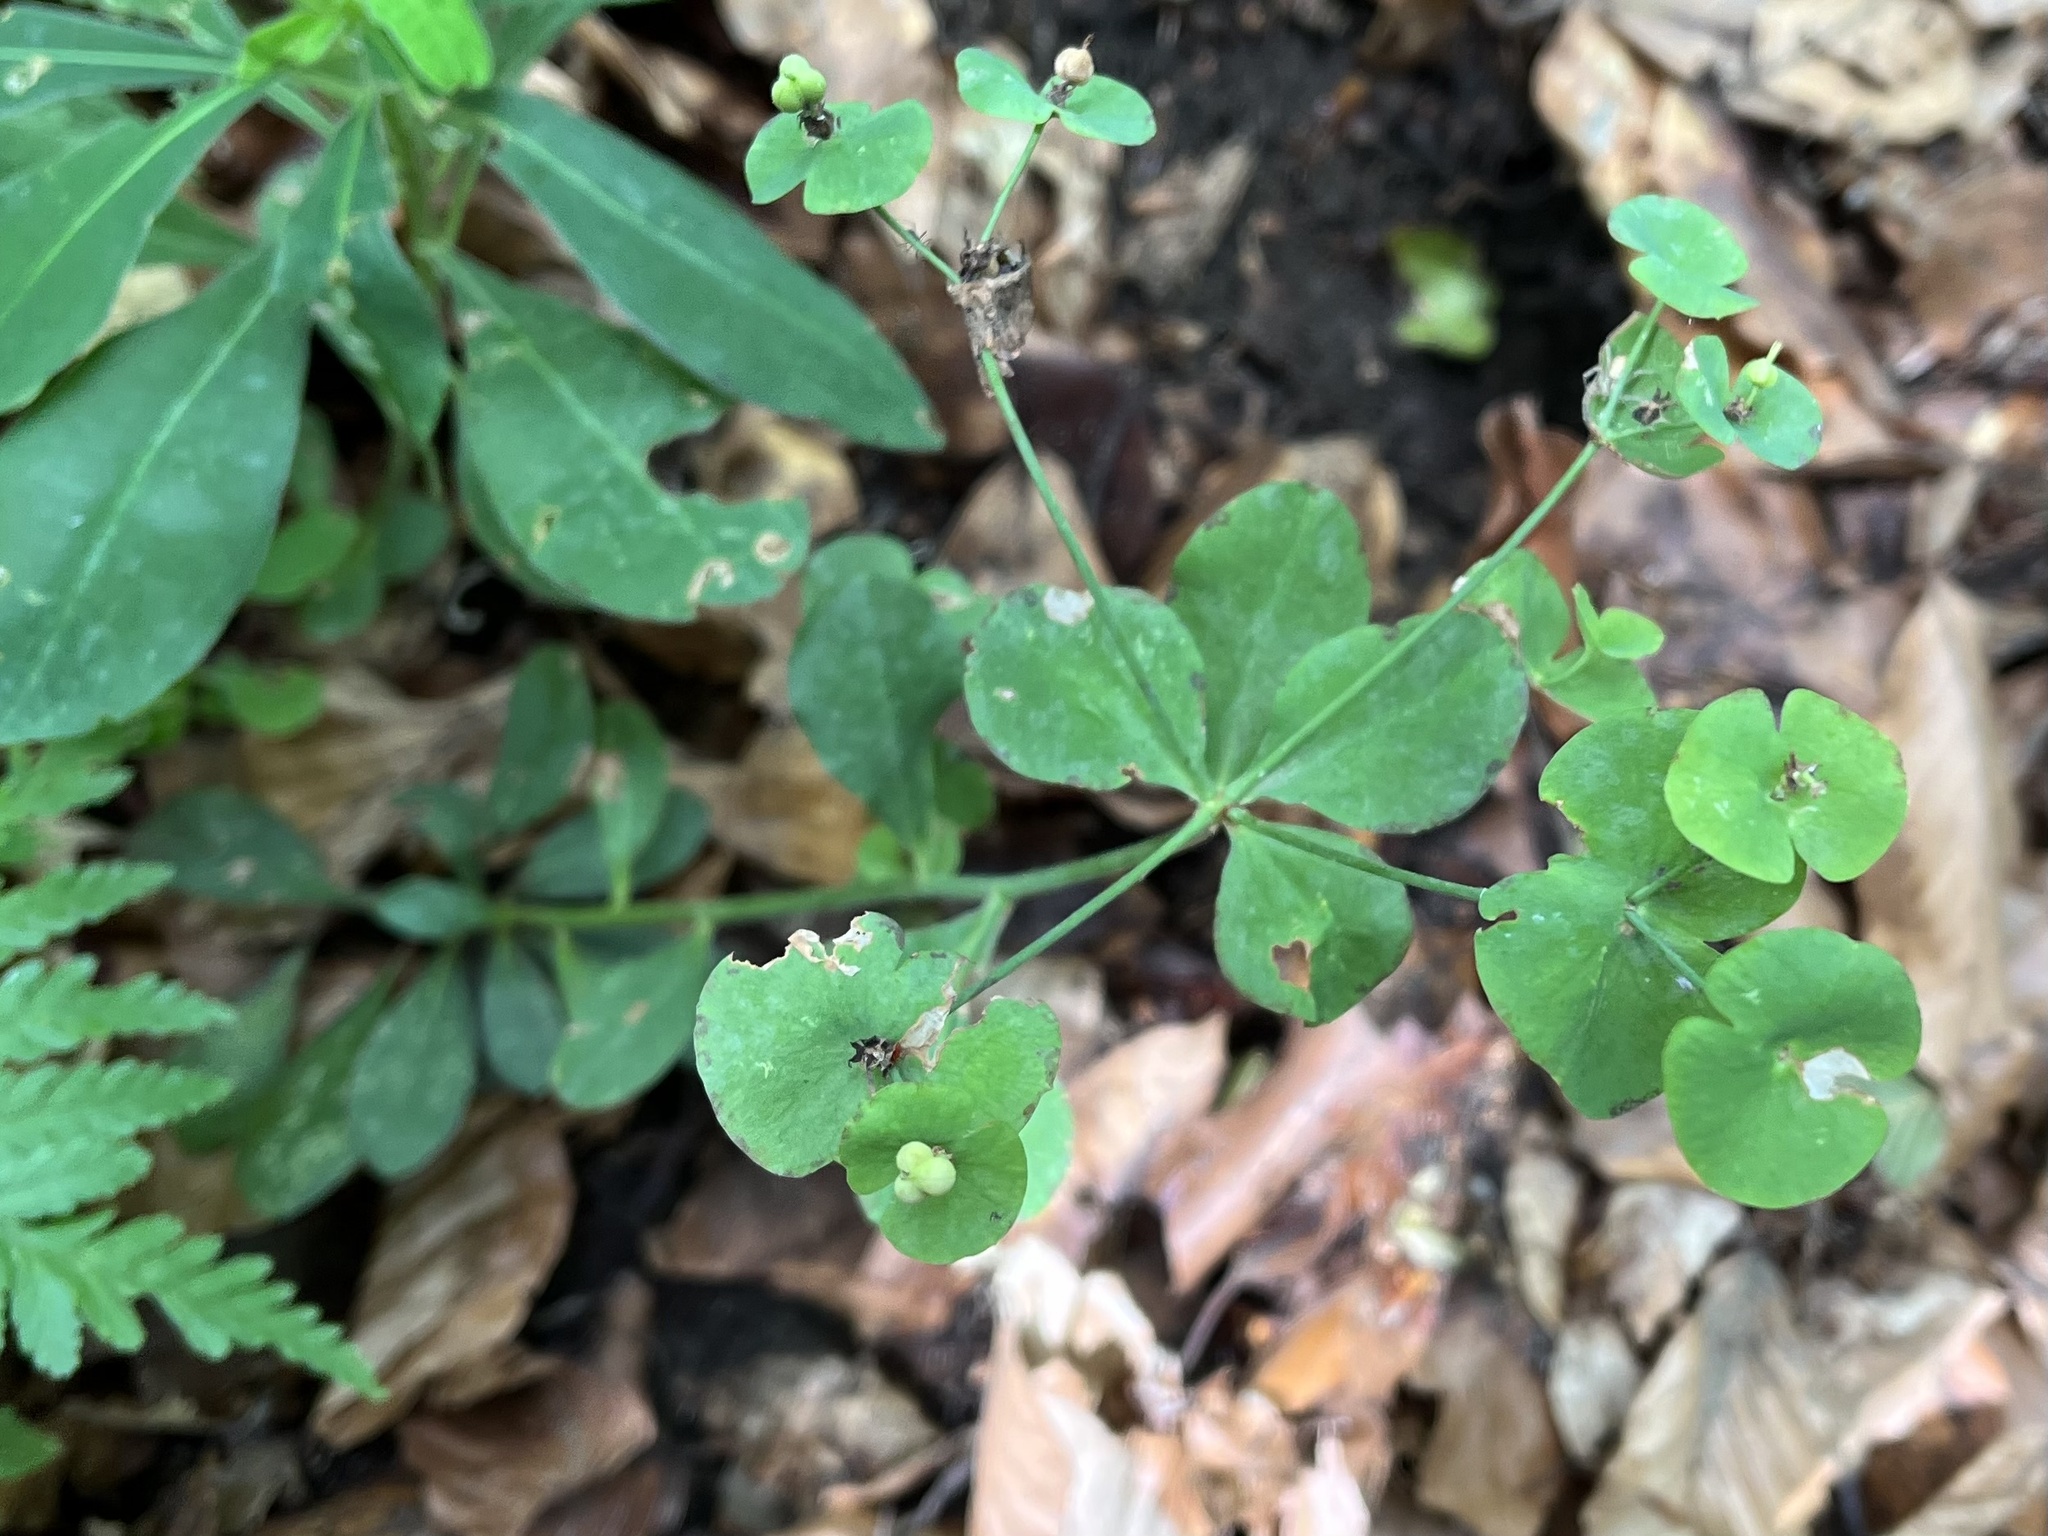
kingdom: Plantae
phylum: Tracheophyta
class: Magnoliopsida
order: Malpighiales
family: Euphorbiaceae
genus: Euphorbia
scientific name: Euphorbia amygdaloides
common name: Wood spurge
